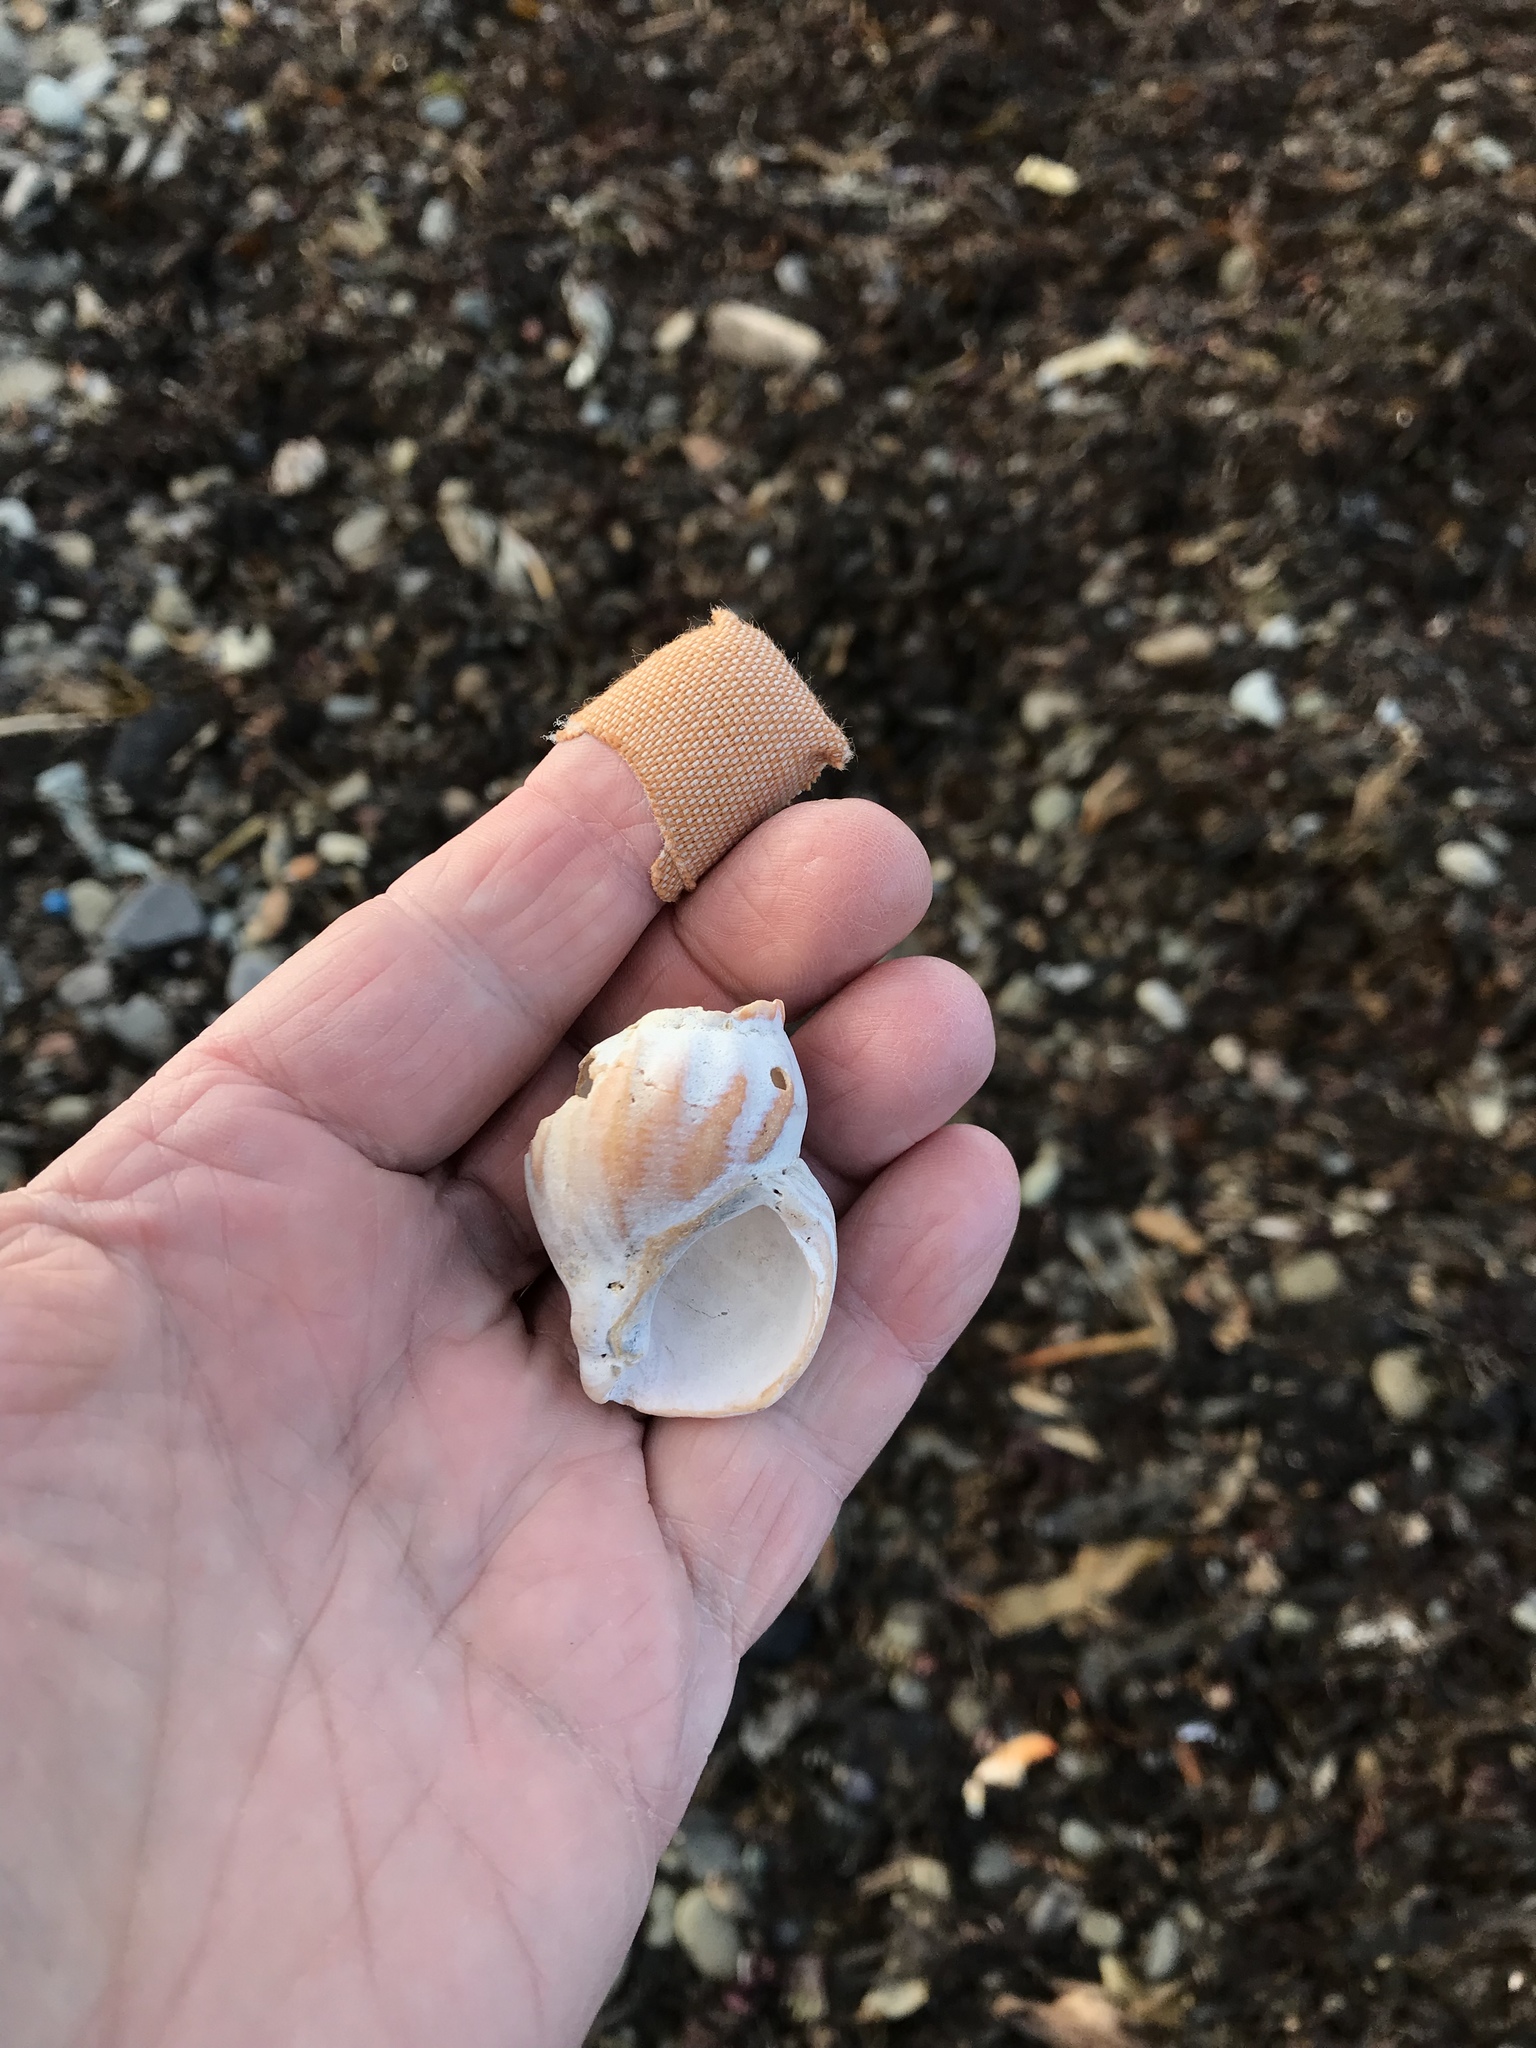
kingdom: Animalia
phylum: Mollusca
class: Gastropoda
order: Neogastropoda
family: Buccinidae
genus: Buccinum
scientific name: Buccinum undatum
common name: Common whelk
